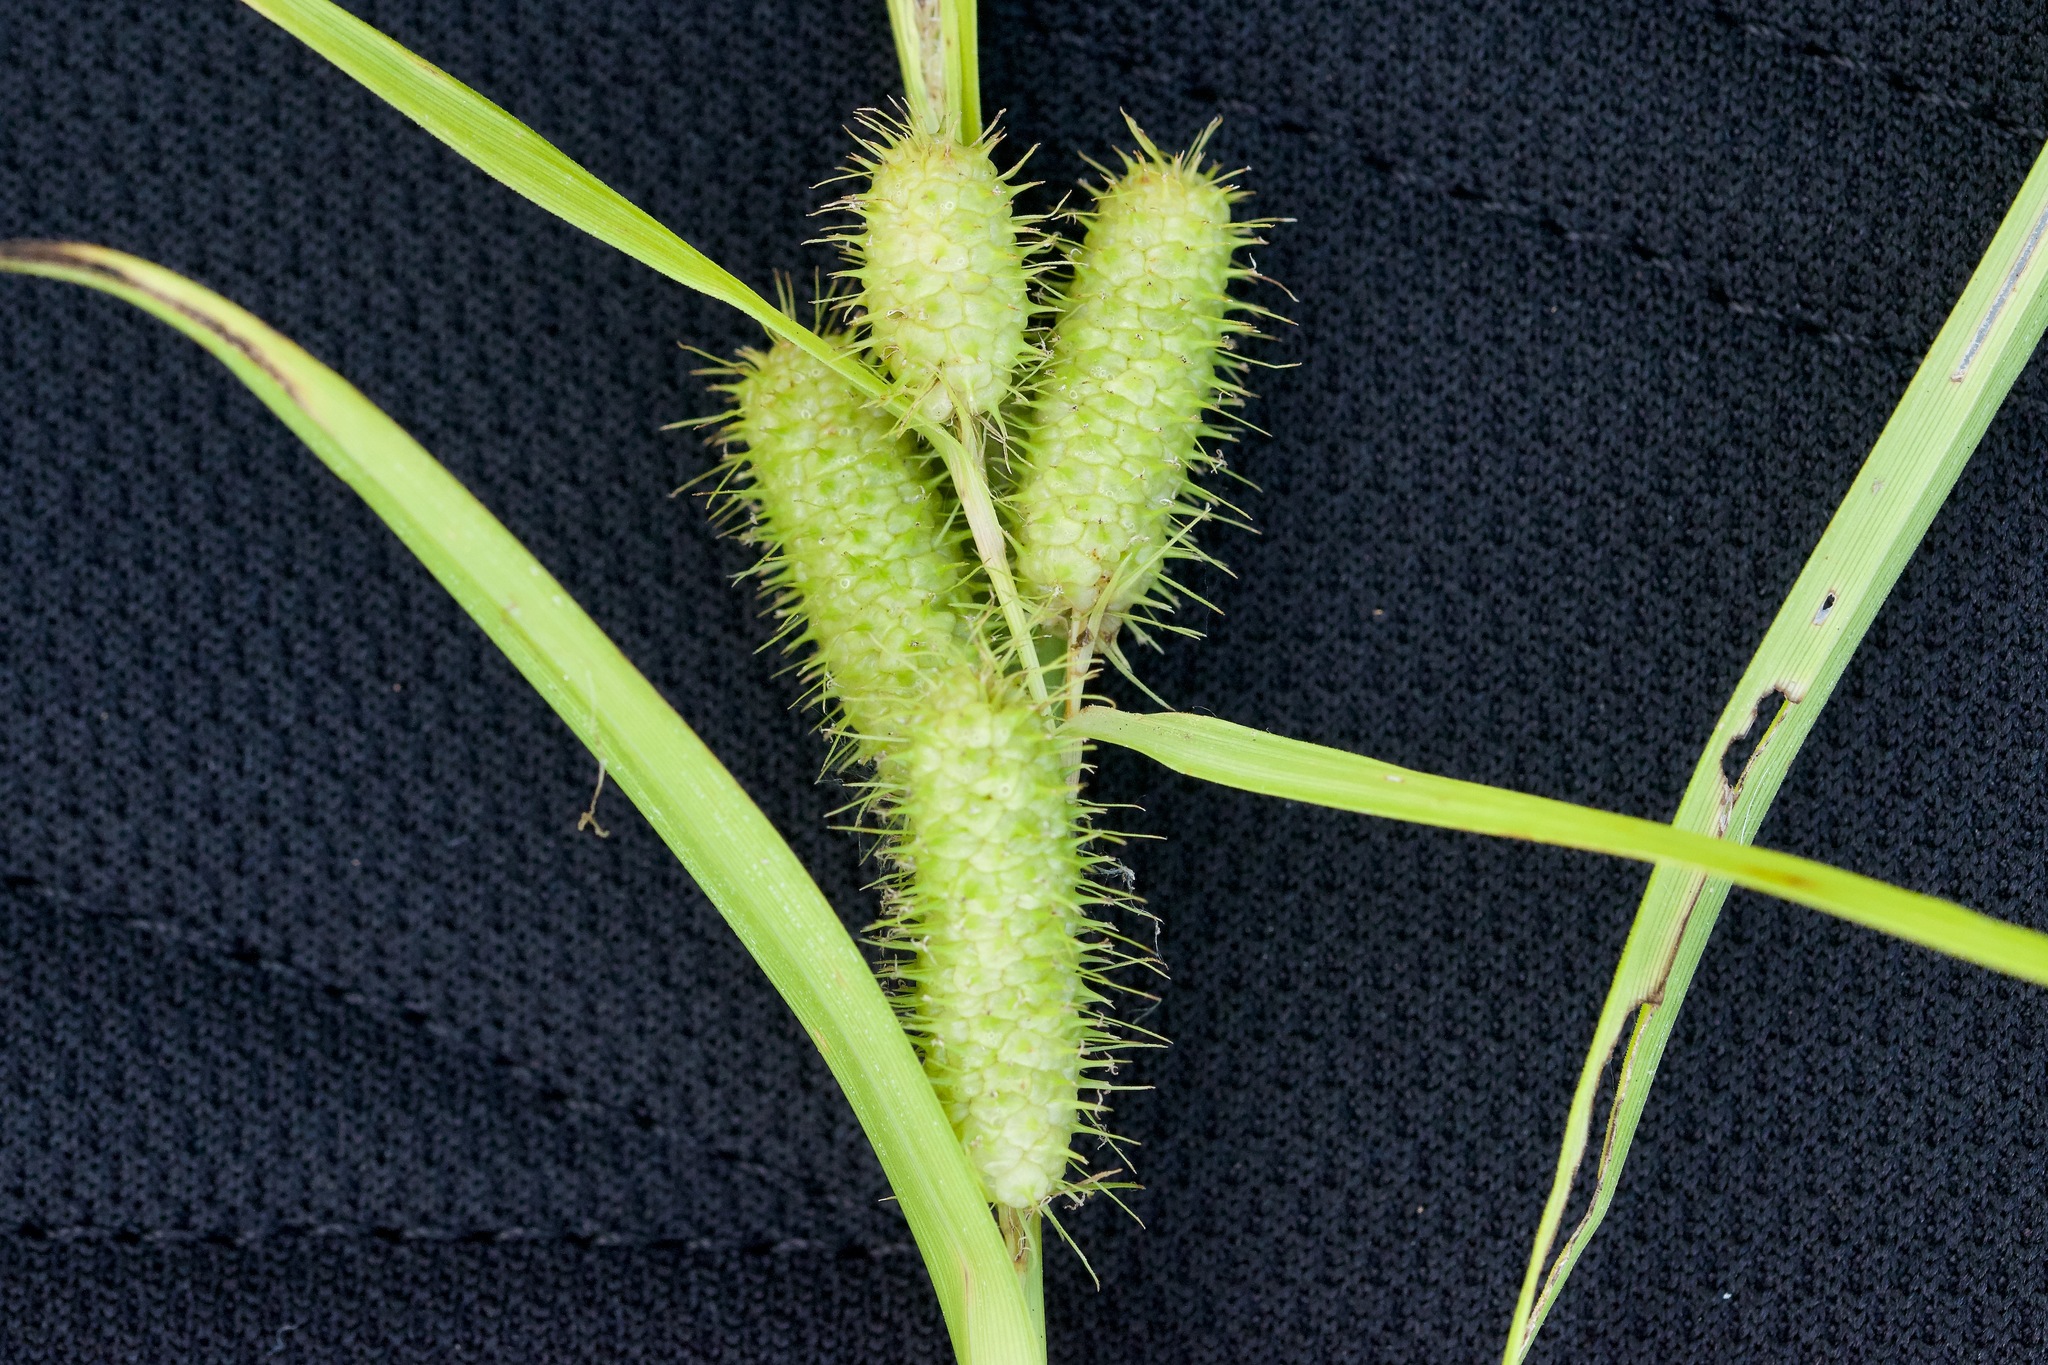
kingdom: Plantae
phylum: Tracheophyta
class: Liliopsida
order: Poales
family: Cyperaceae
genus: Carex
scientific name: Carex frankii
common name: Frank's sedge
